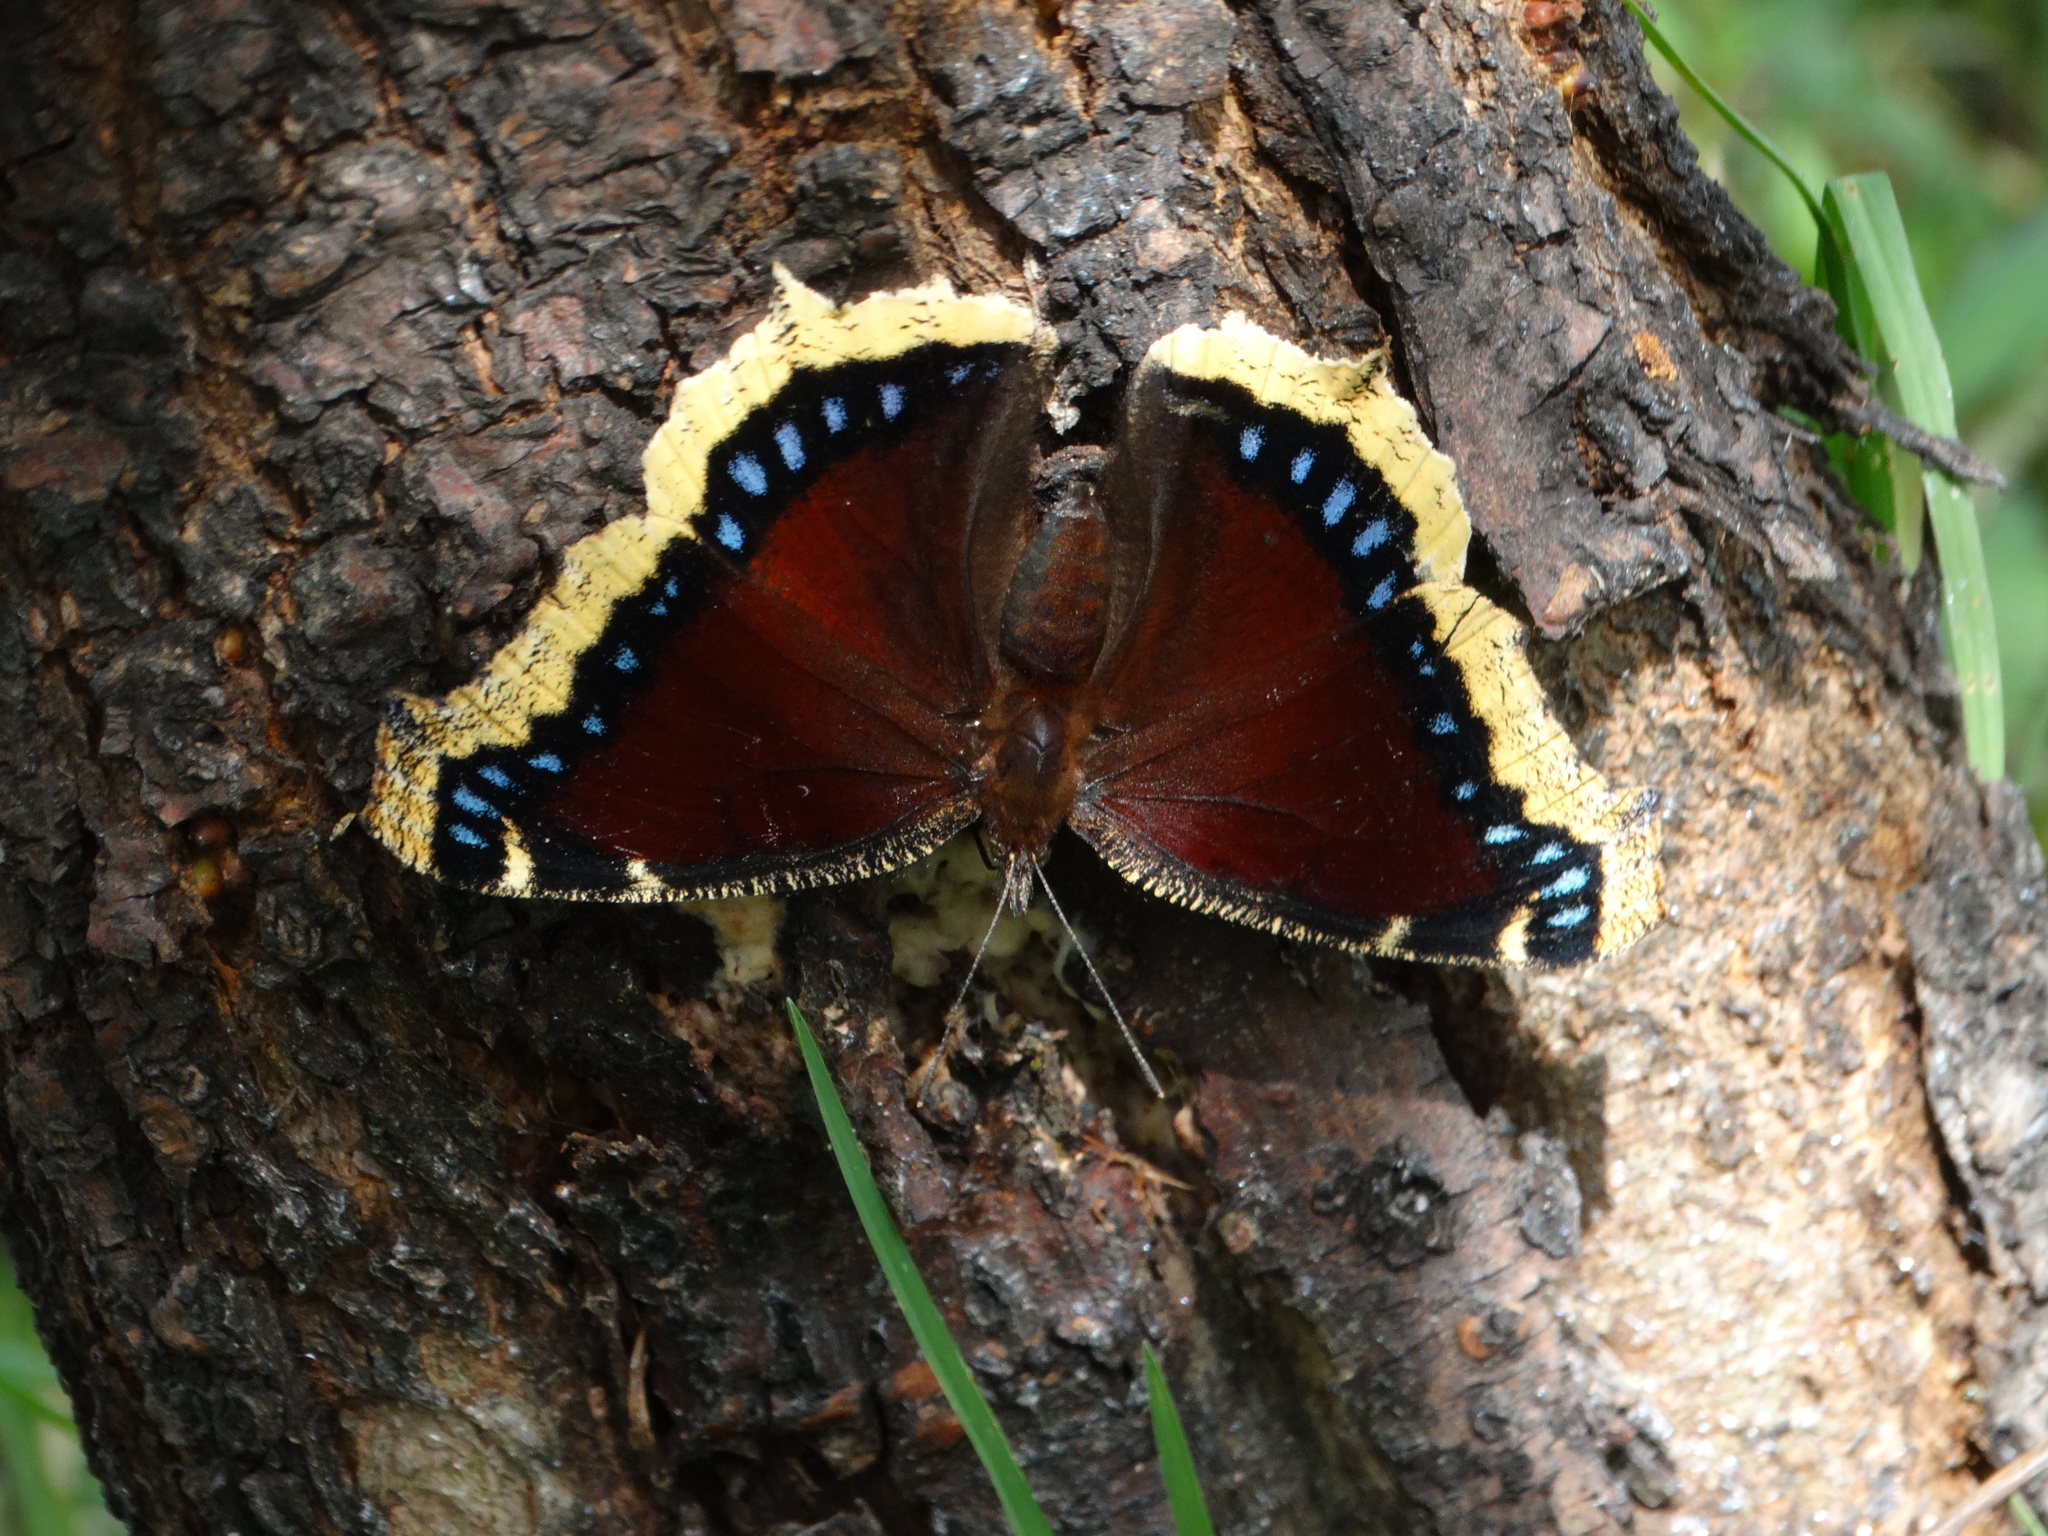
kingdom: Animalia
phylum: Arthropoda
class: Insecta
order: Lepidoptera
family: Nymphalidae
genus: Nymphalis
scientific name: Nymphalis antiopa
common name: Camberwell beauty
